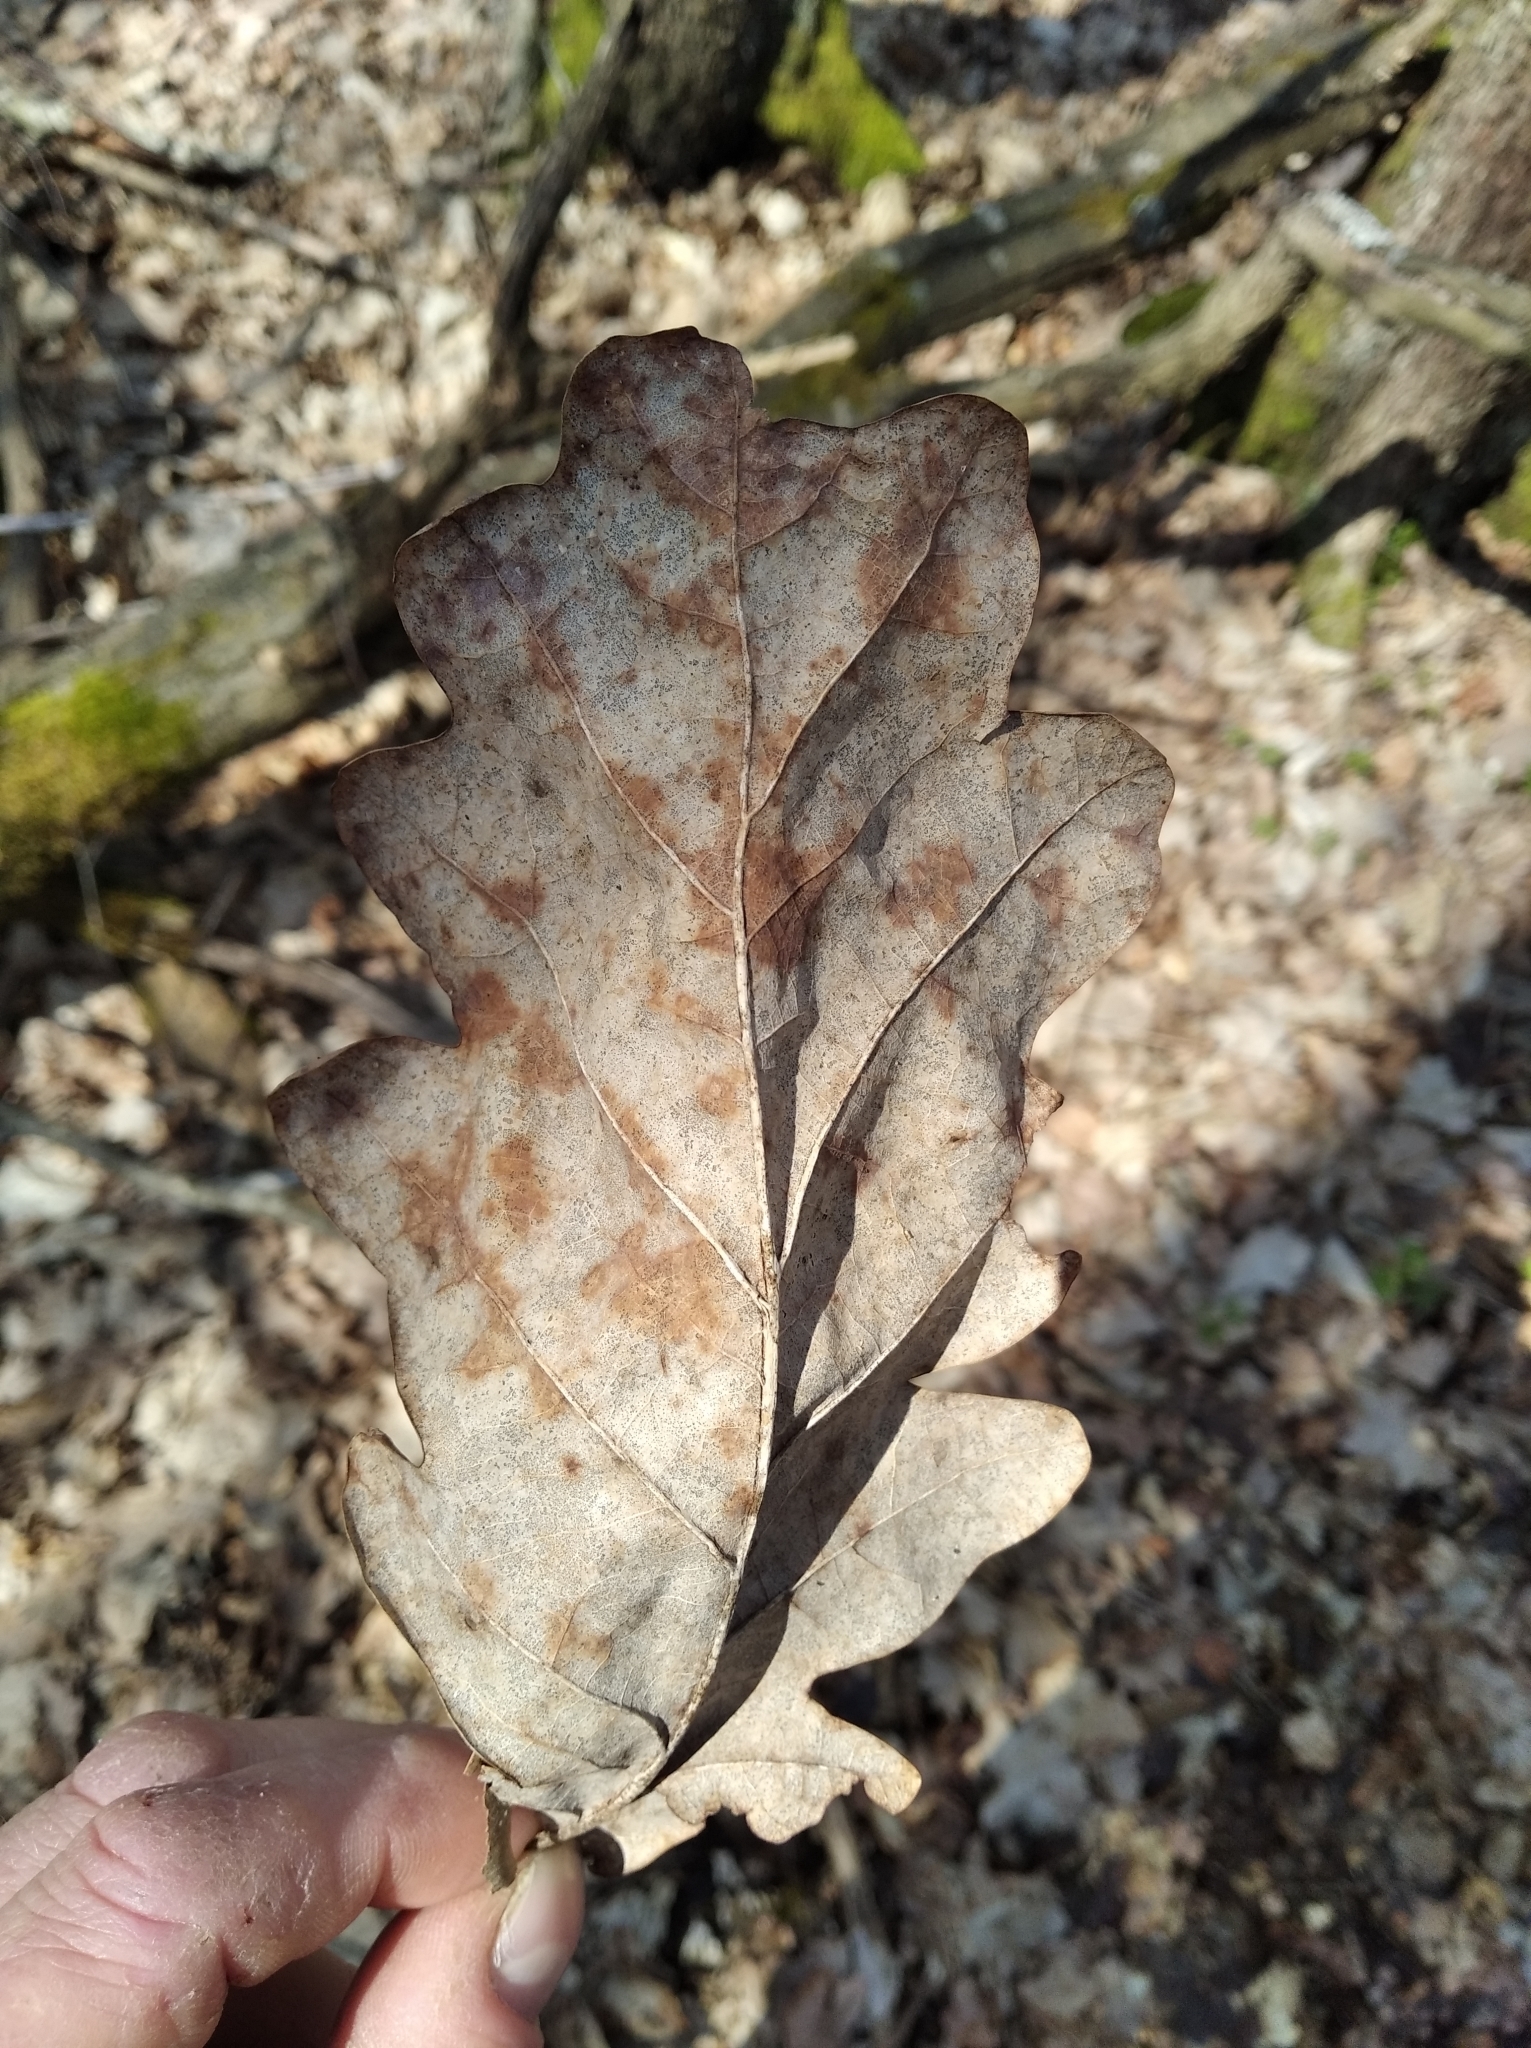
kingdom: Plantae
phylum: Tracheophyta
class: Magnoliopsida
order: Fagales
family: Fagaceae
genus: Quercus
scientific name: Quercus robur
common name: Pedunculate oak
